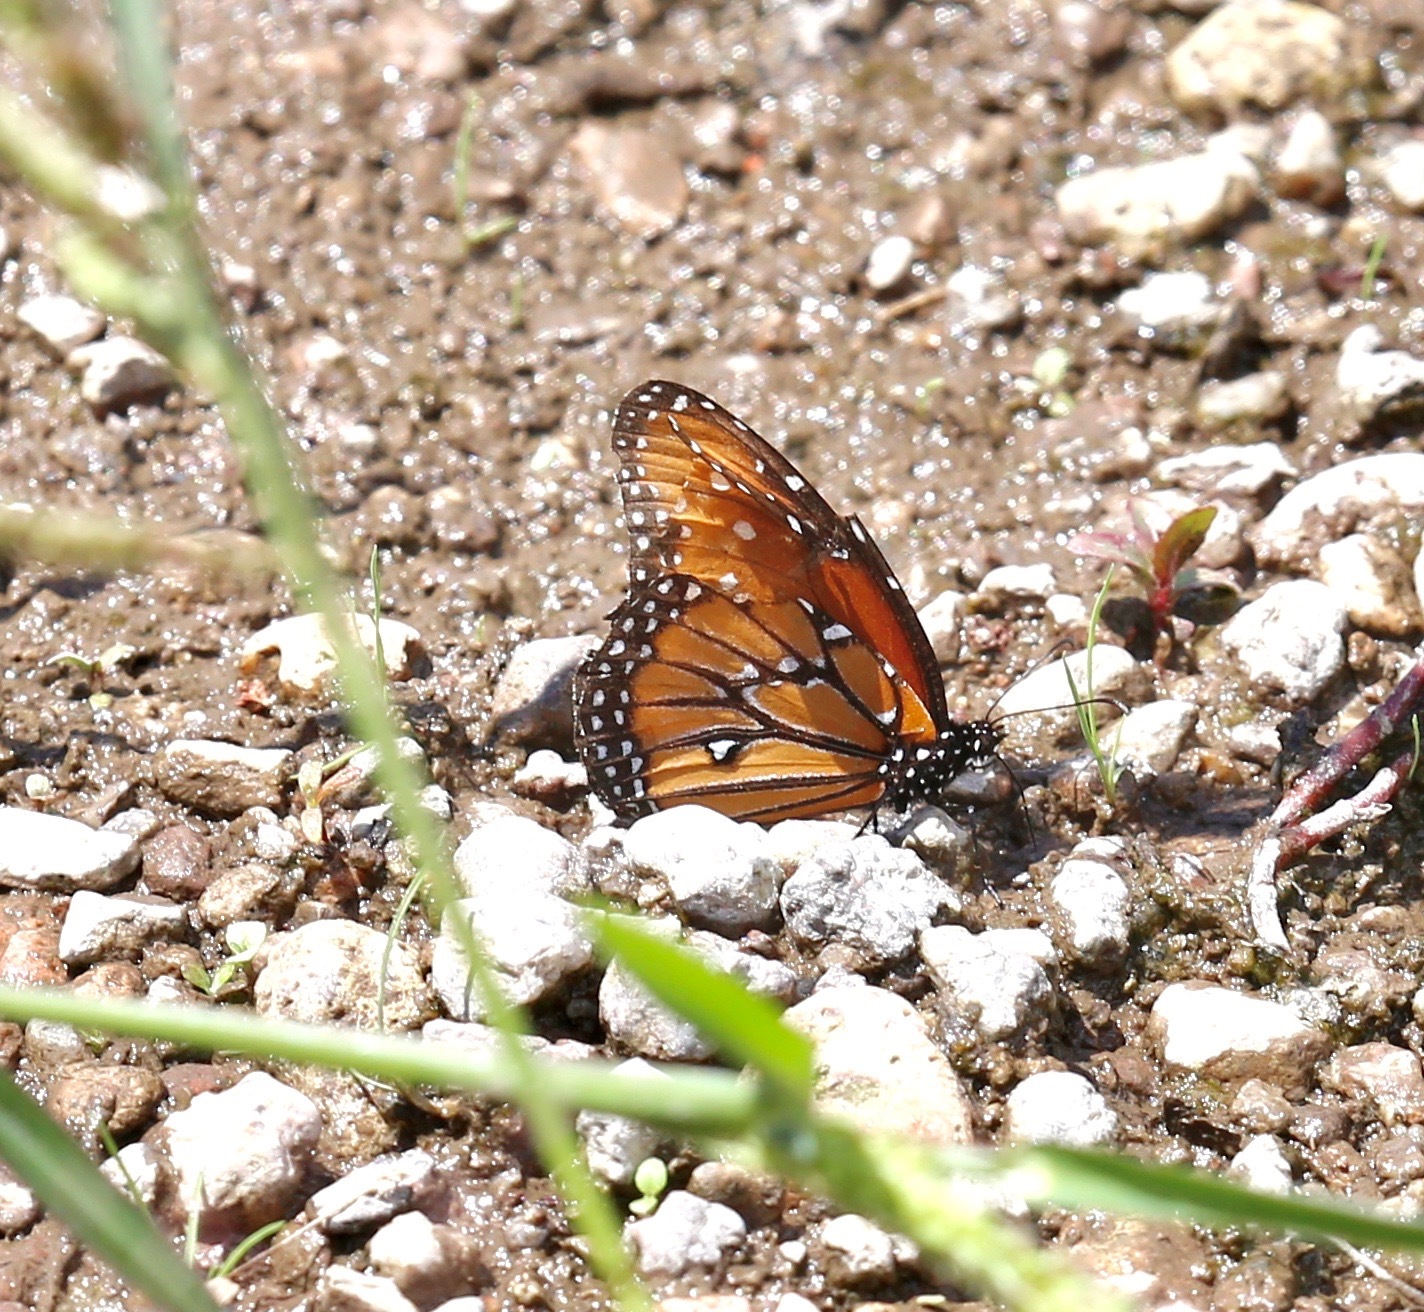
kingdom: Animalia
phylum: Arthropoda
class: Insecta
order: Lepidoptera
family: Nymphalidae
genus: Danaus
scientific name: Danaus gilippus
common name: Queen
